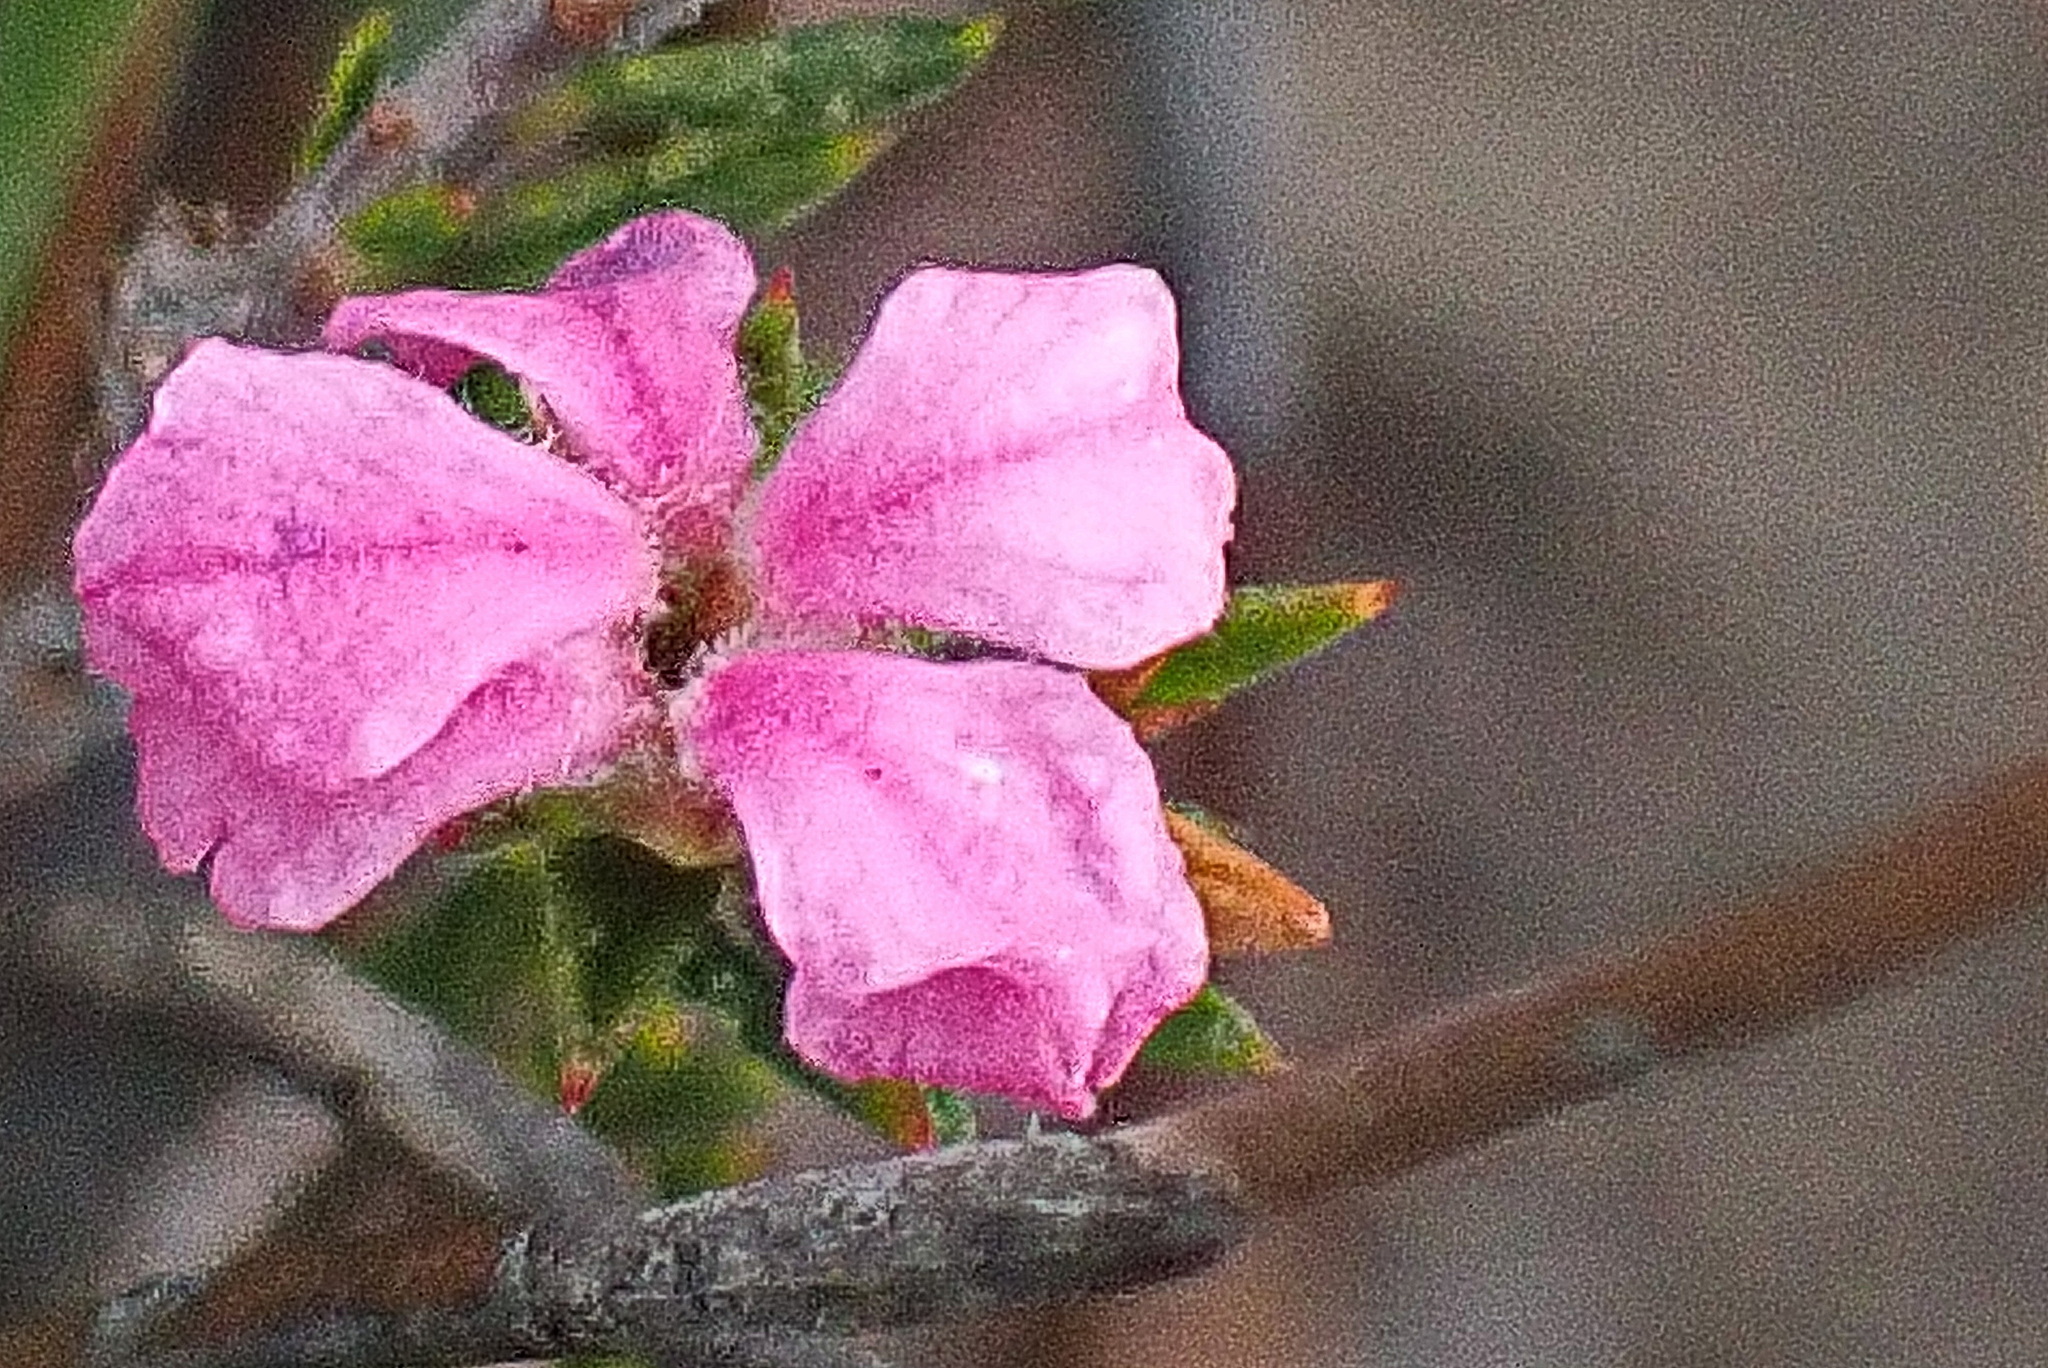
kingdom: Plantae
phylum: Tracheophyta
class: Magnoliopsida
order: Sapindales
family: Rutaceae
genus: Acmadenia
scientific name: Acmadenia maculata
